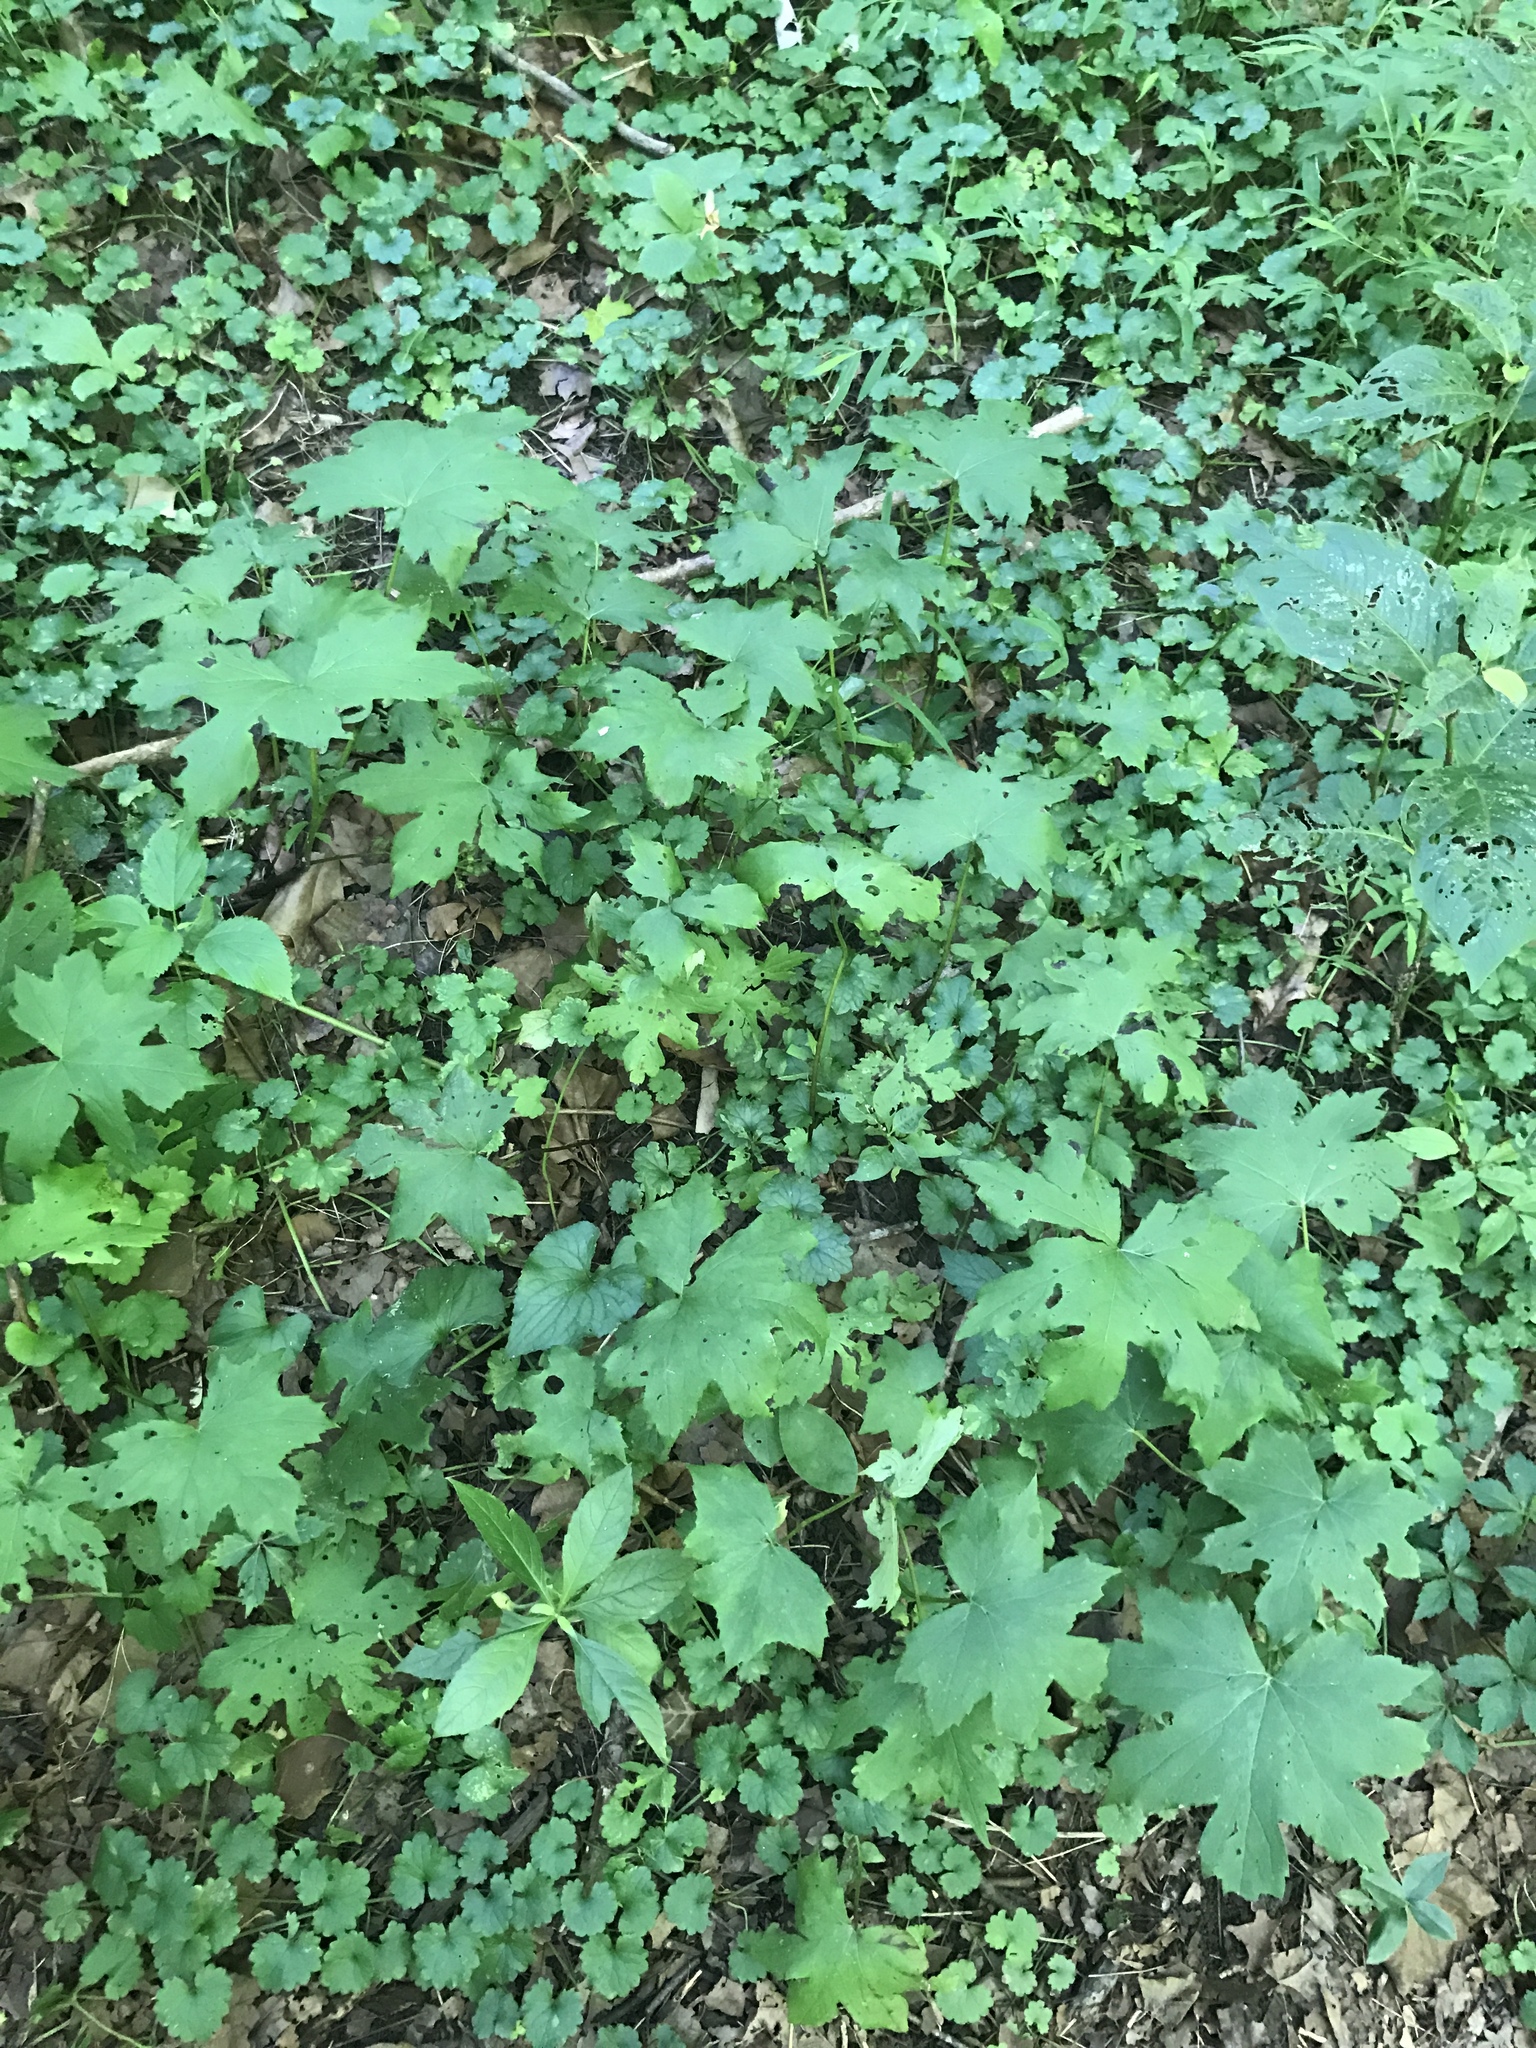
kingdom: Plantae
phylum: Tracheophyta
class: Magnoliopsida
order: Boraginales
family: Hydrophyllaceae
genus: Hydrophyllum
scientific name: Hydrophyllum canadense
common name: Canada waterleaf
